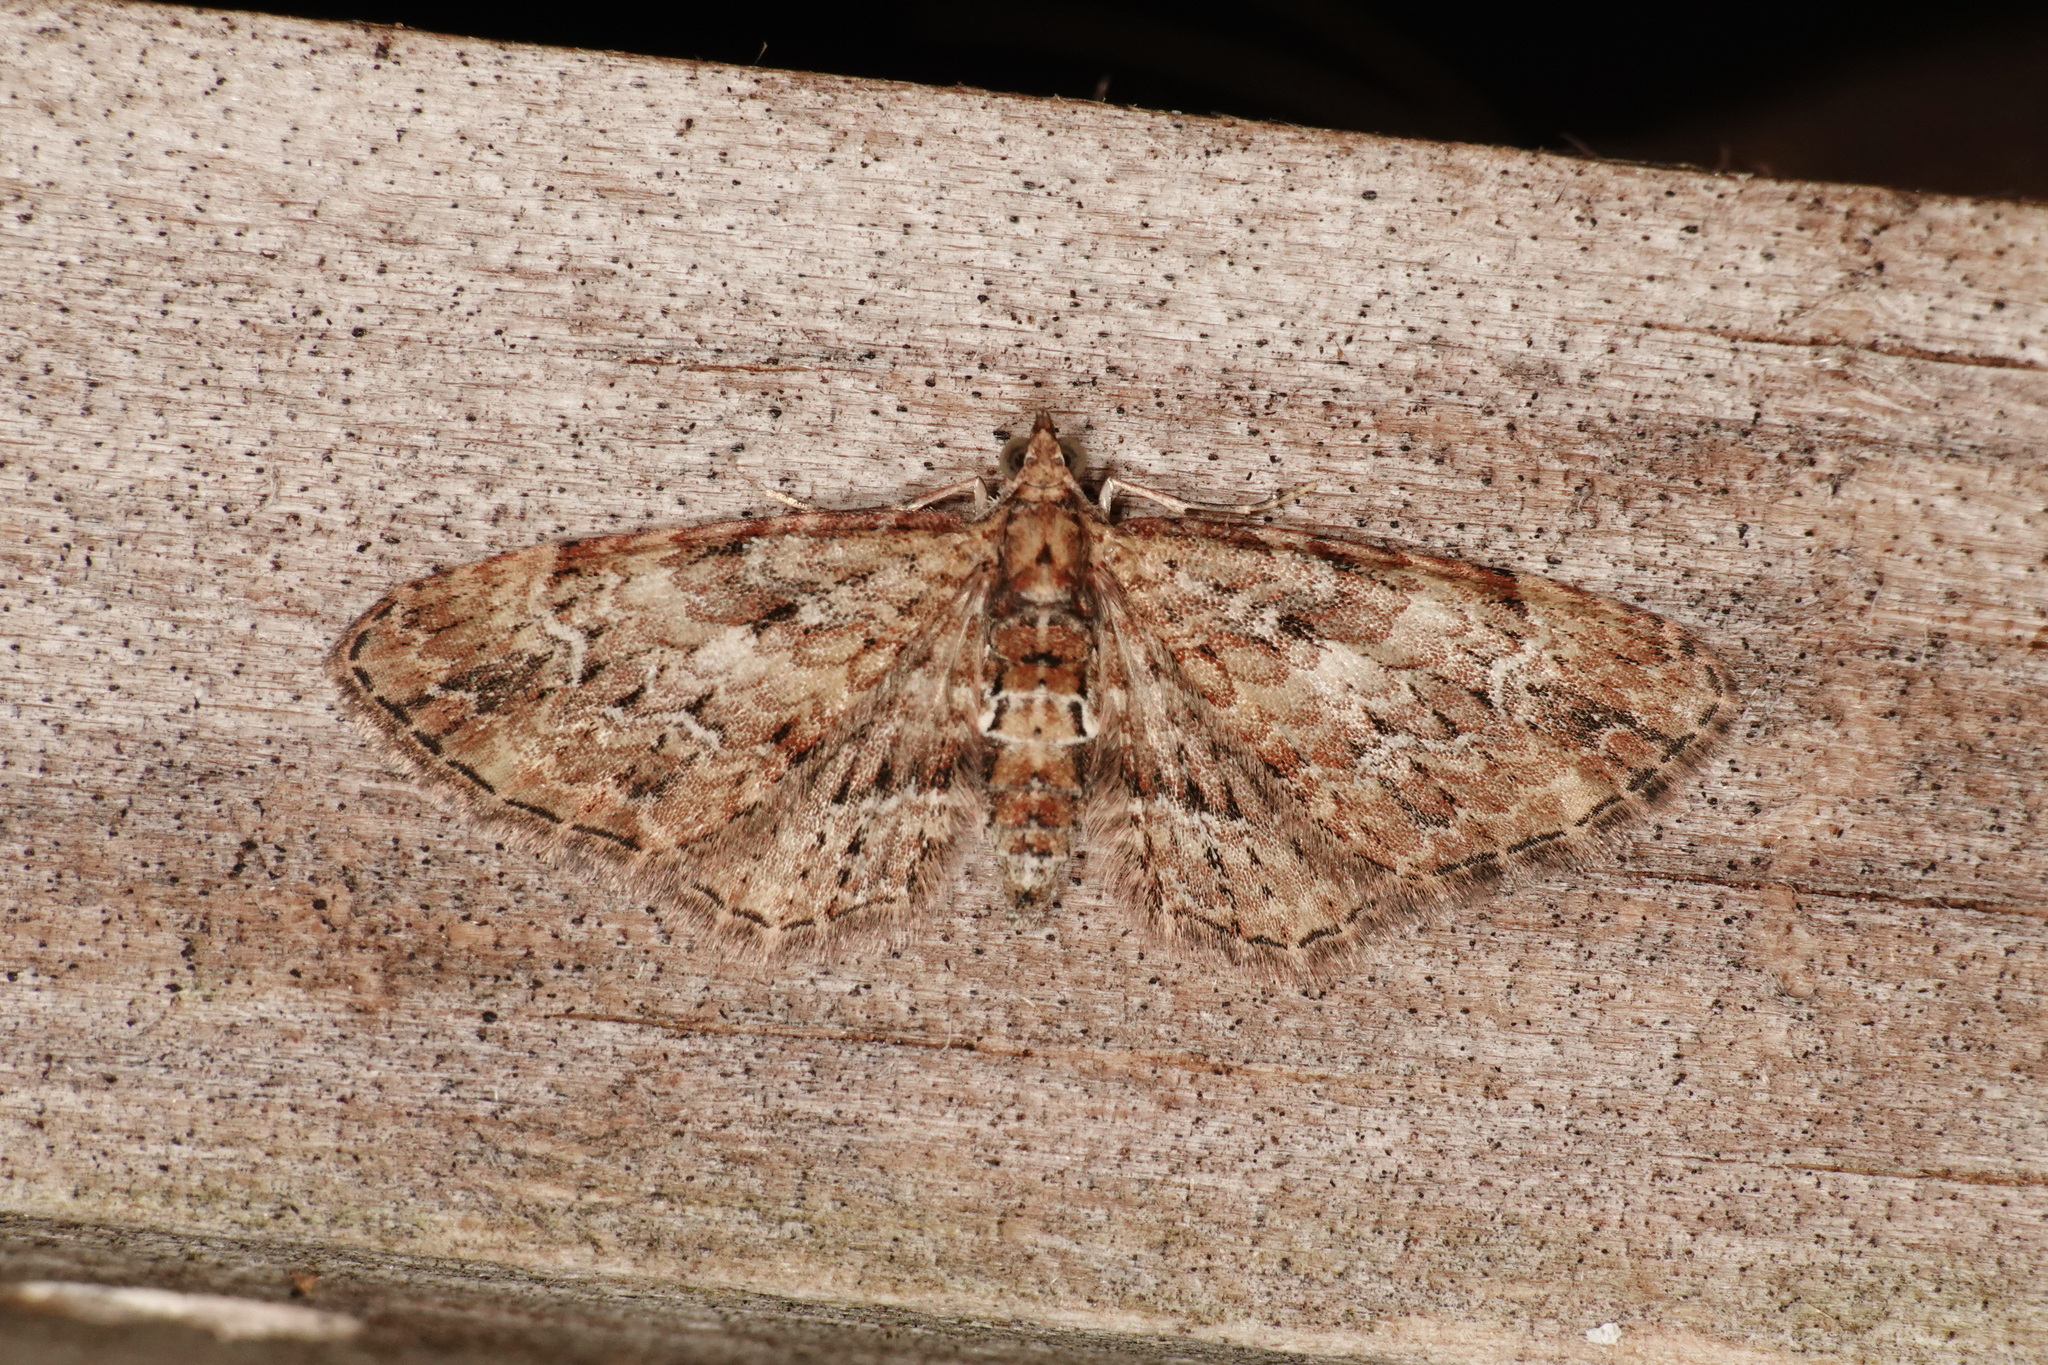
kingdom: Animalia
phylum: Arthropoda
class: Insecta
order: Lepidoptera
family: Geometridae
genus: Pasiphilodes
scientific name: Pasiphilodes testulata
